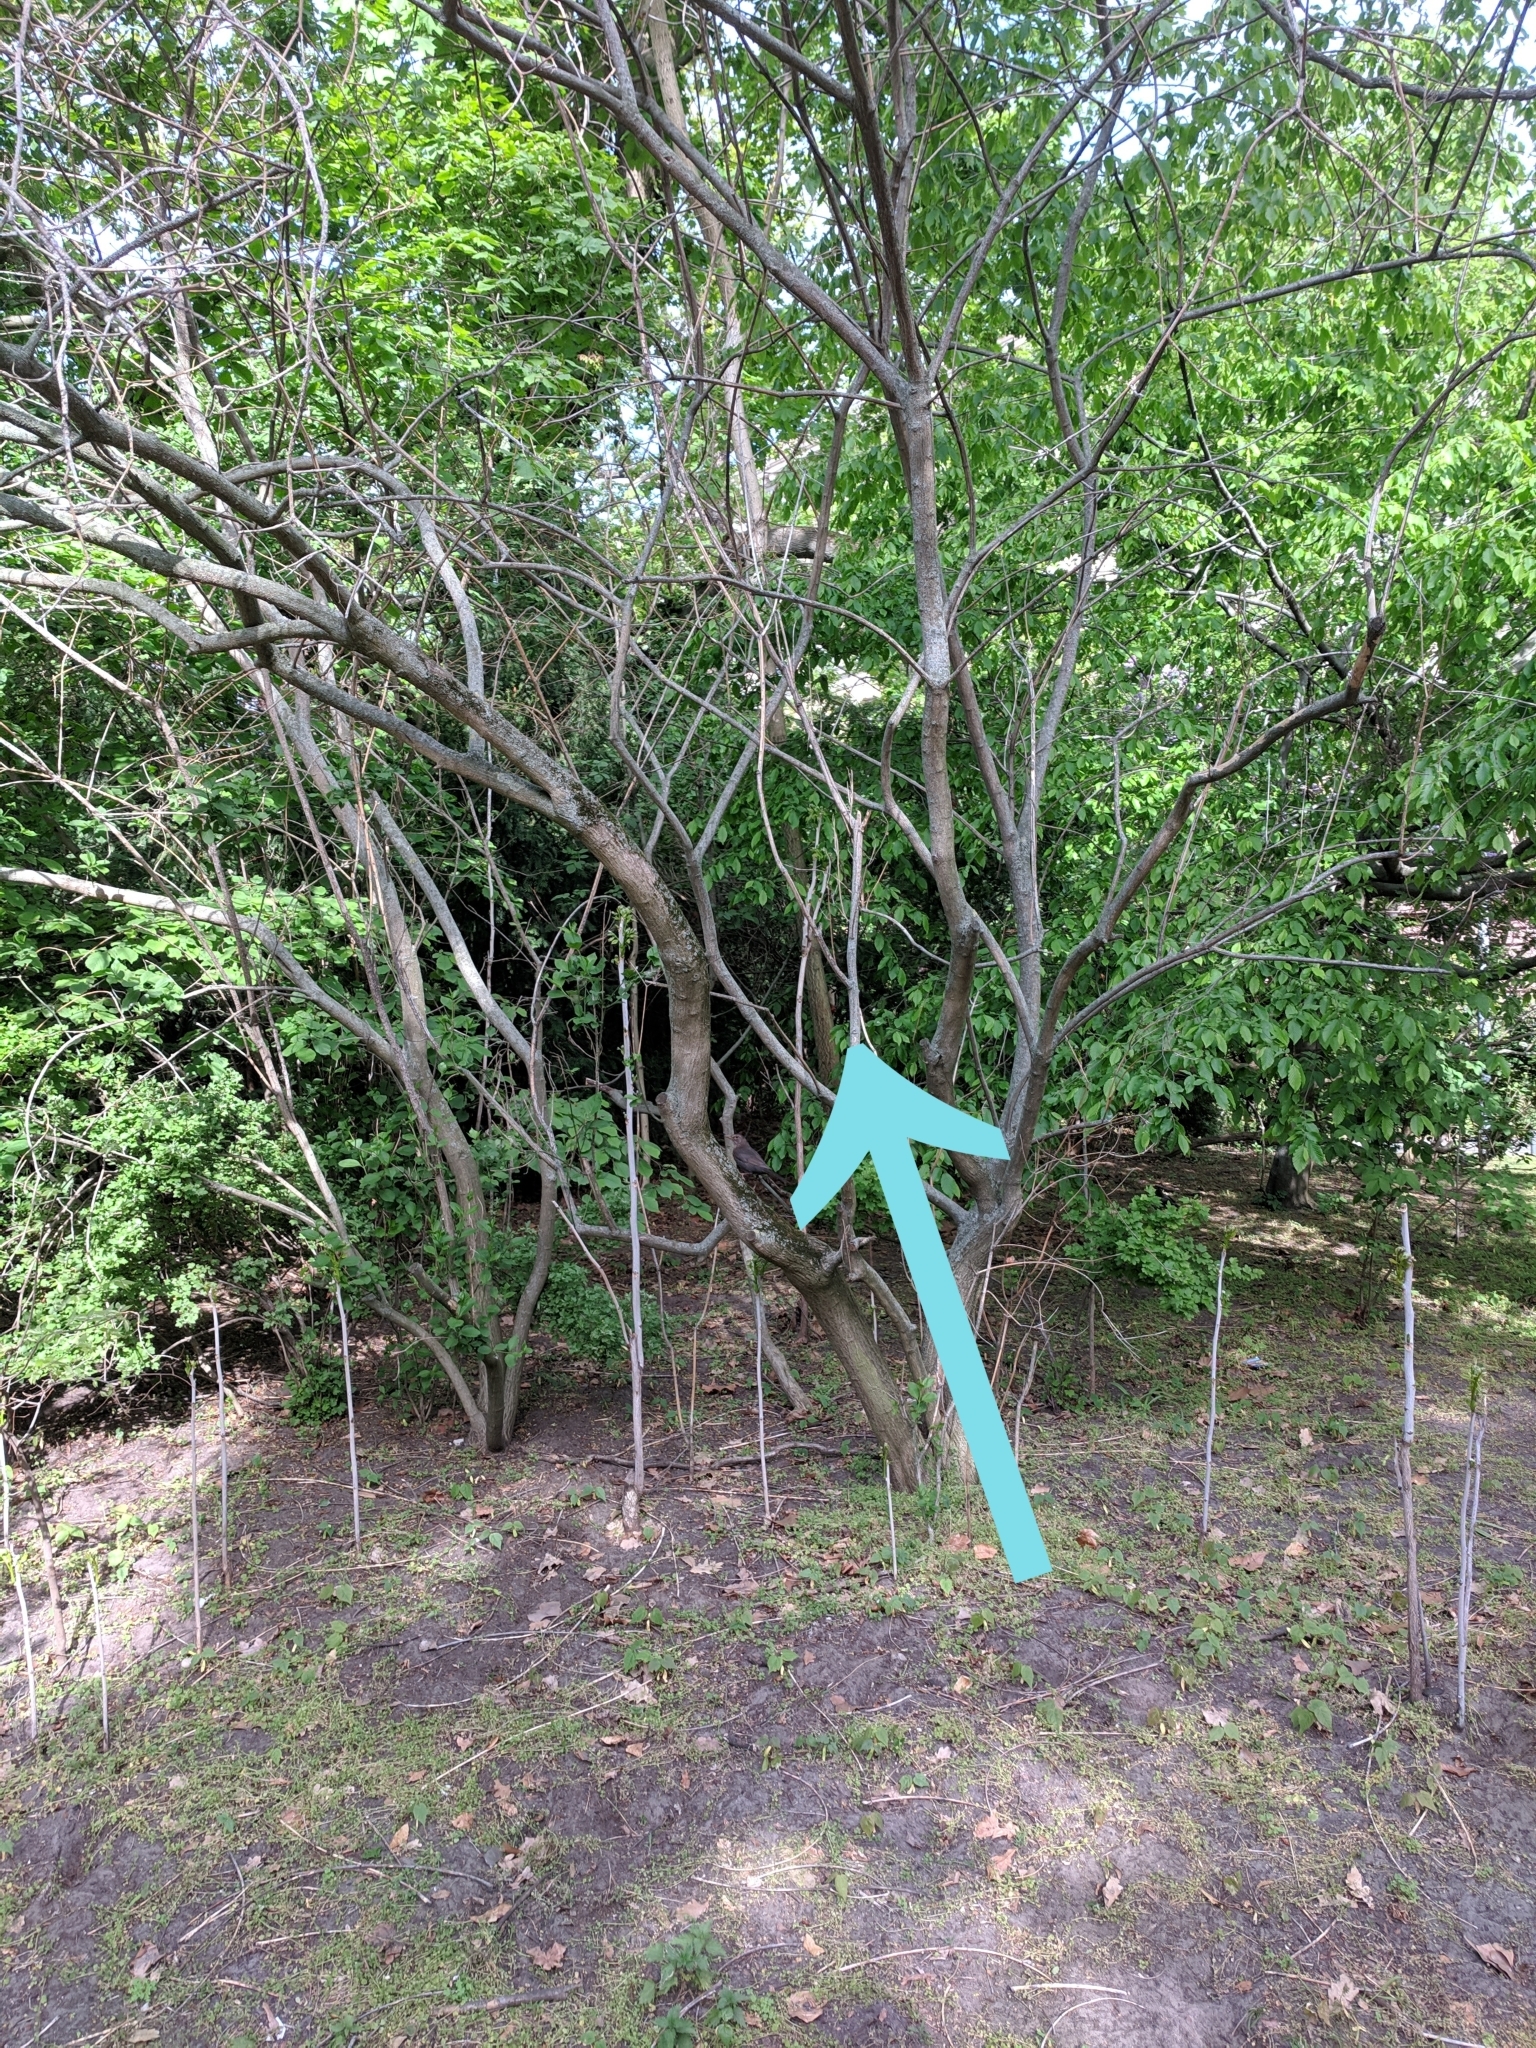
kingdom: Animalia
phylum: Chordata
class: Aves
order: Piciformes
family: Picidae
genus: Dendrocopos
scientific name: Dendrocopos major
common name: Great spotted woodpecker
